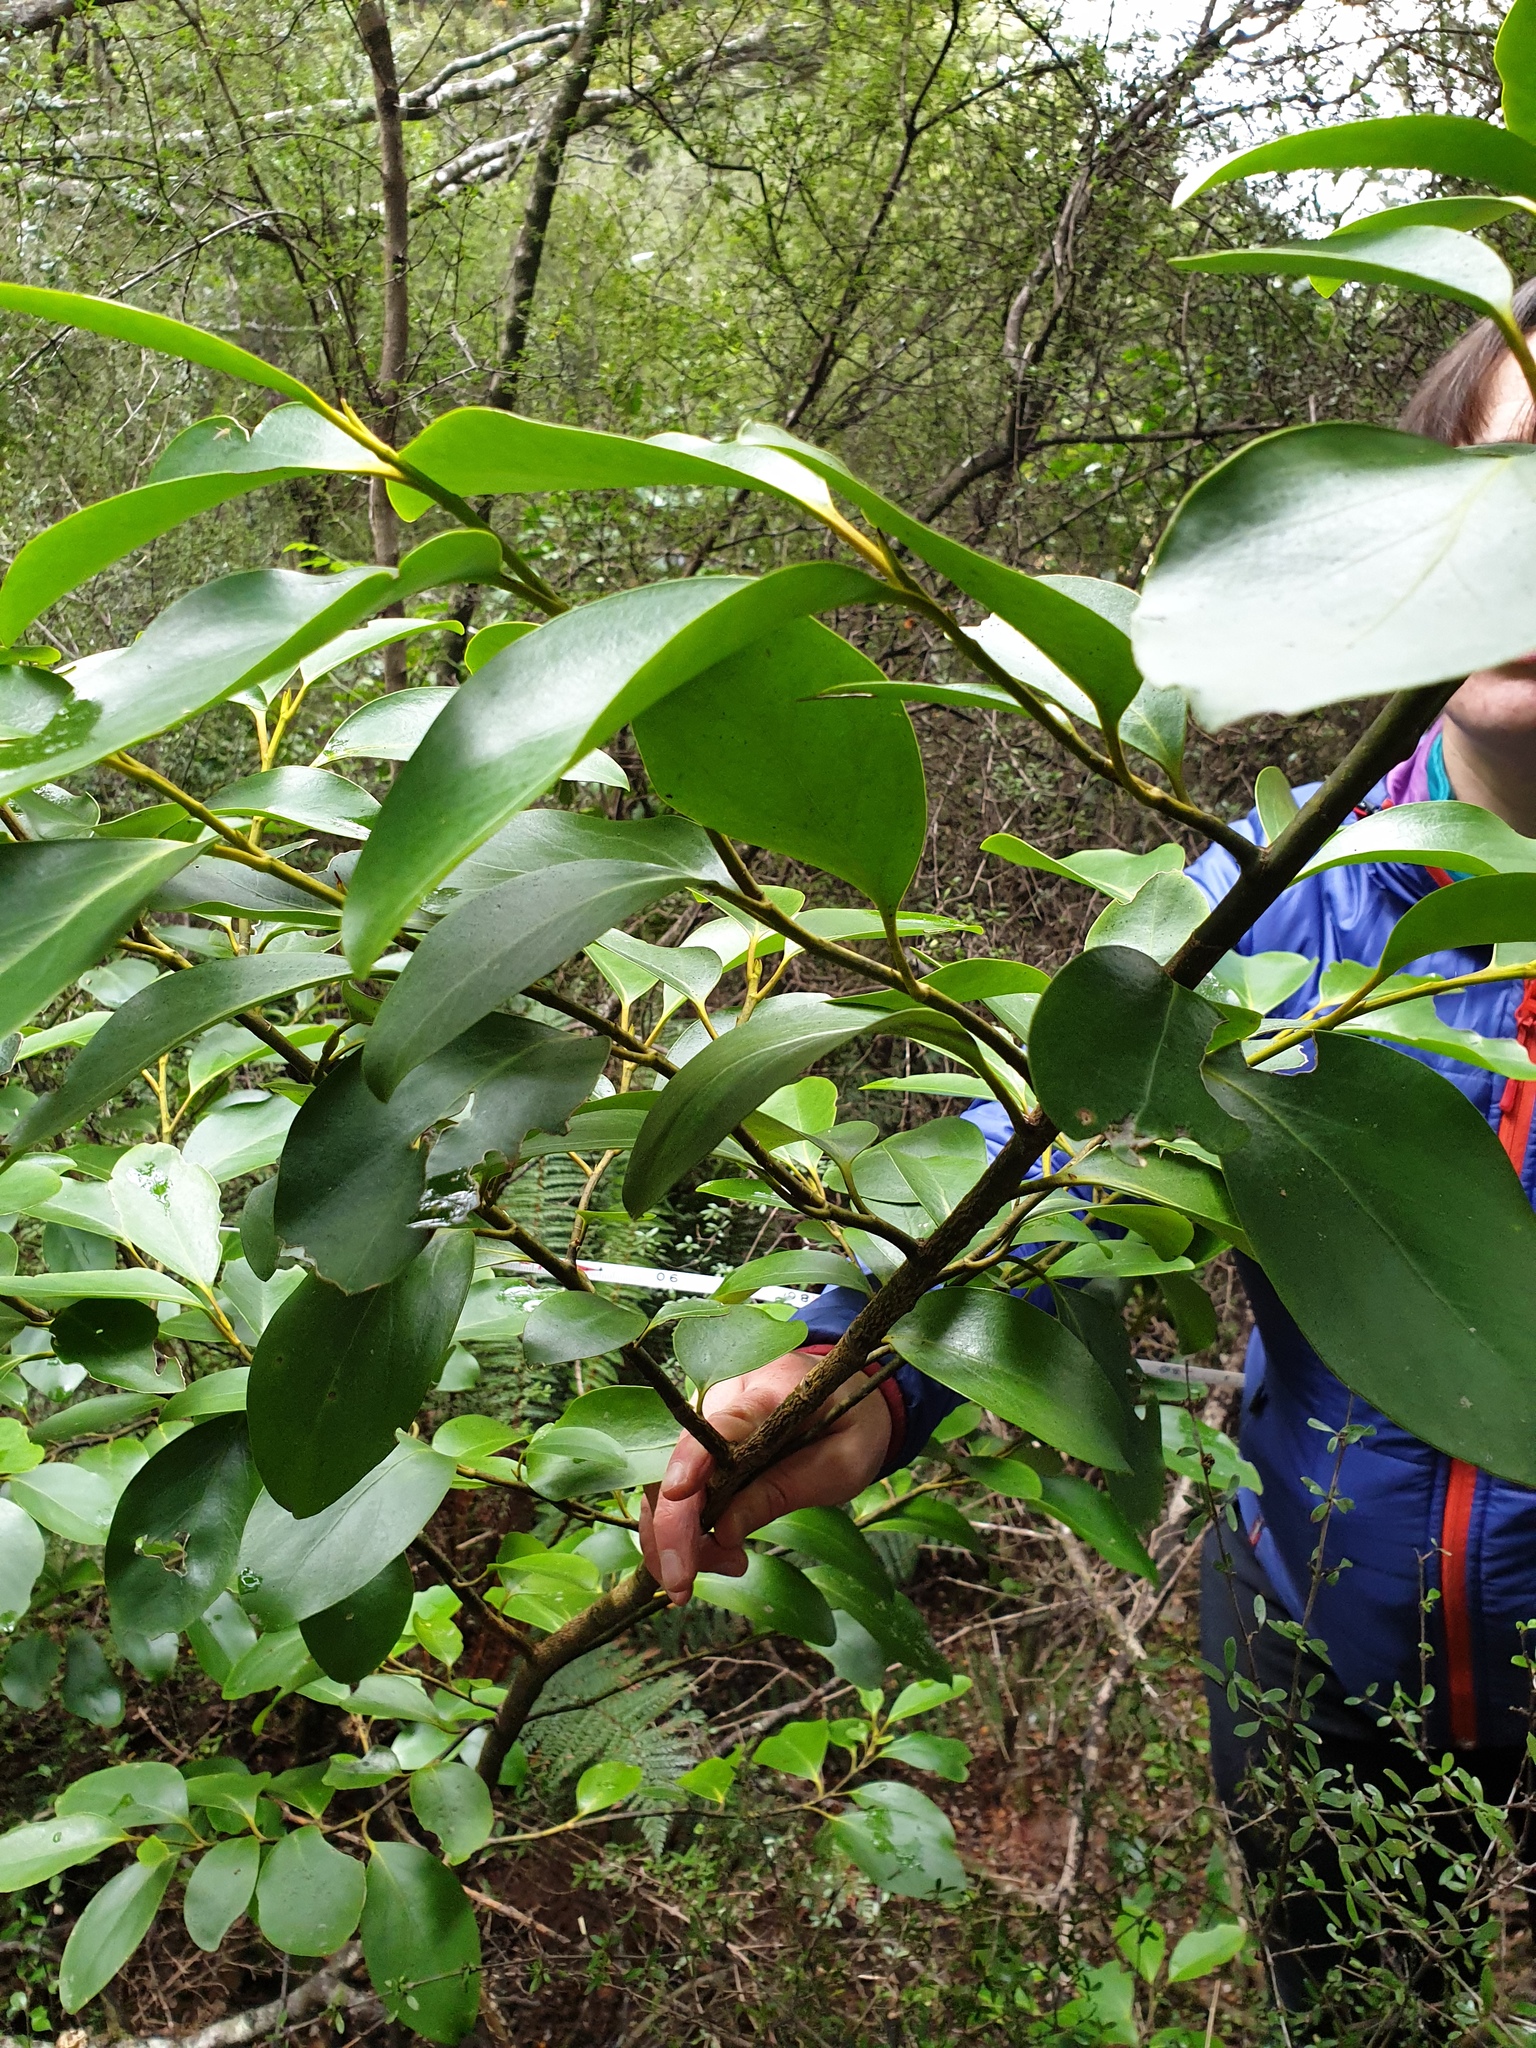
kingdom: Plantae
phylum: Tracheophyta
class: Magnoliopsida
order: Apiales
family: Griseliniaceae
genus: Griselinia
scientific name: Griselinia littoralis
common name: New zealand broadleaf
